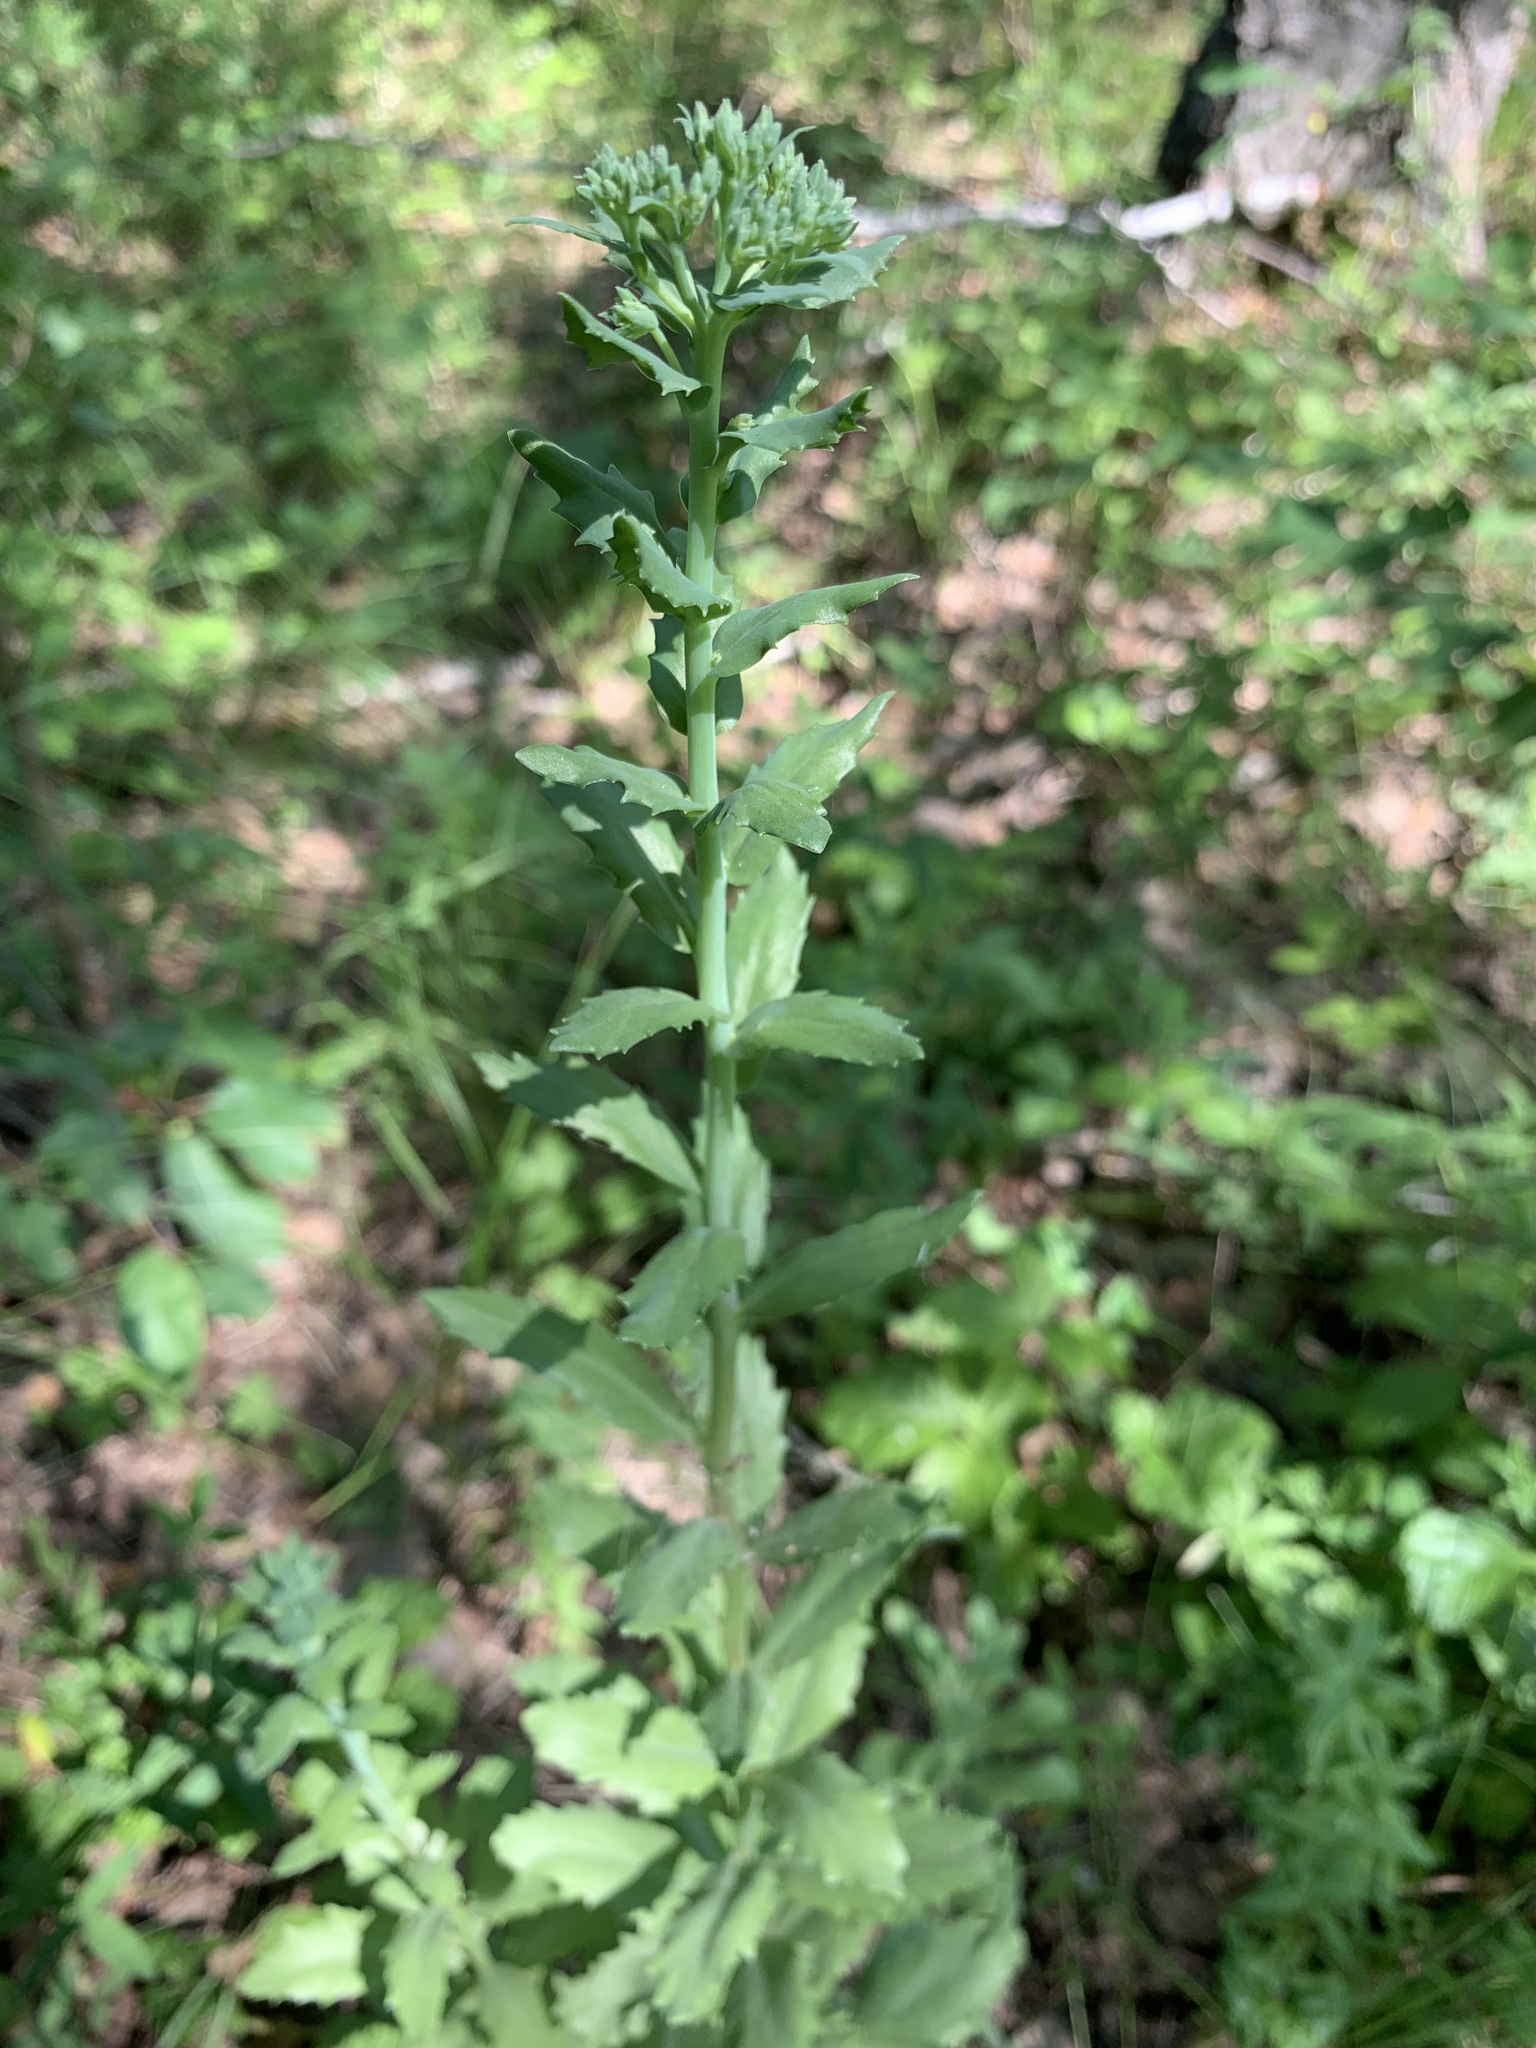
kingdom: Plantae
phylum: Tracheophyta
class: Magnoliopsida
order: Saxifragales
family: Crassulaceae
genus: Hylotelephium
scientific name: Hylotelephium telephium
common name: Live-forever
